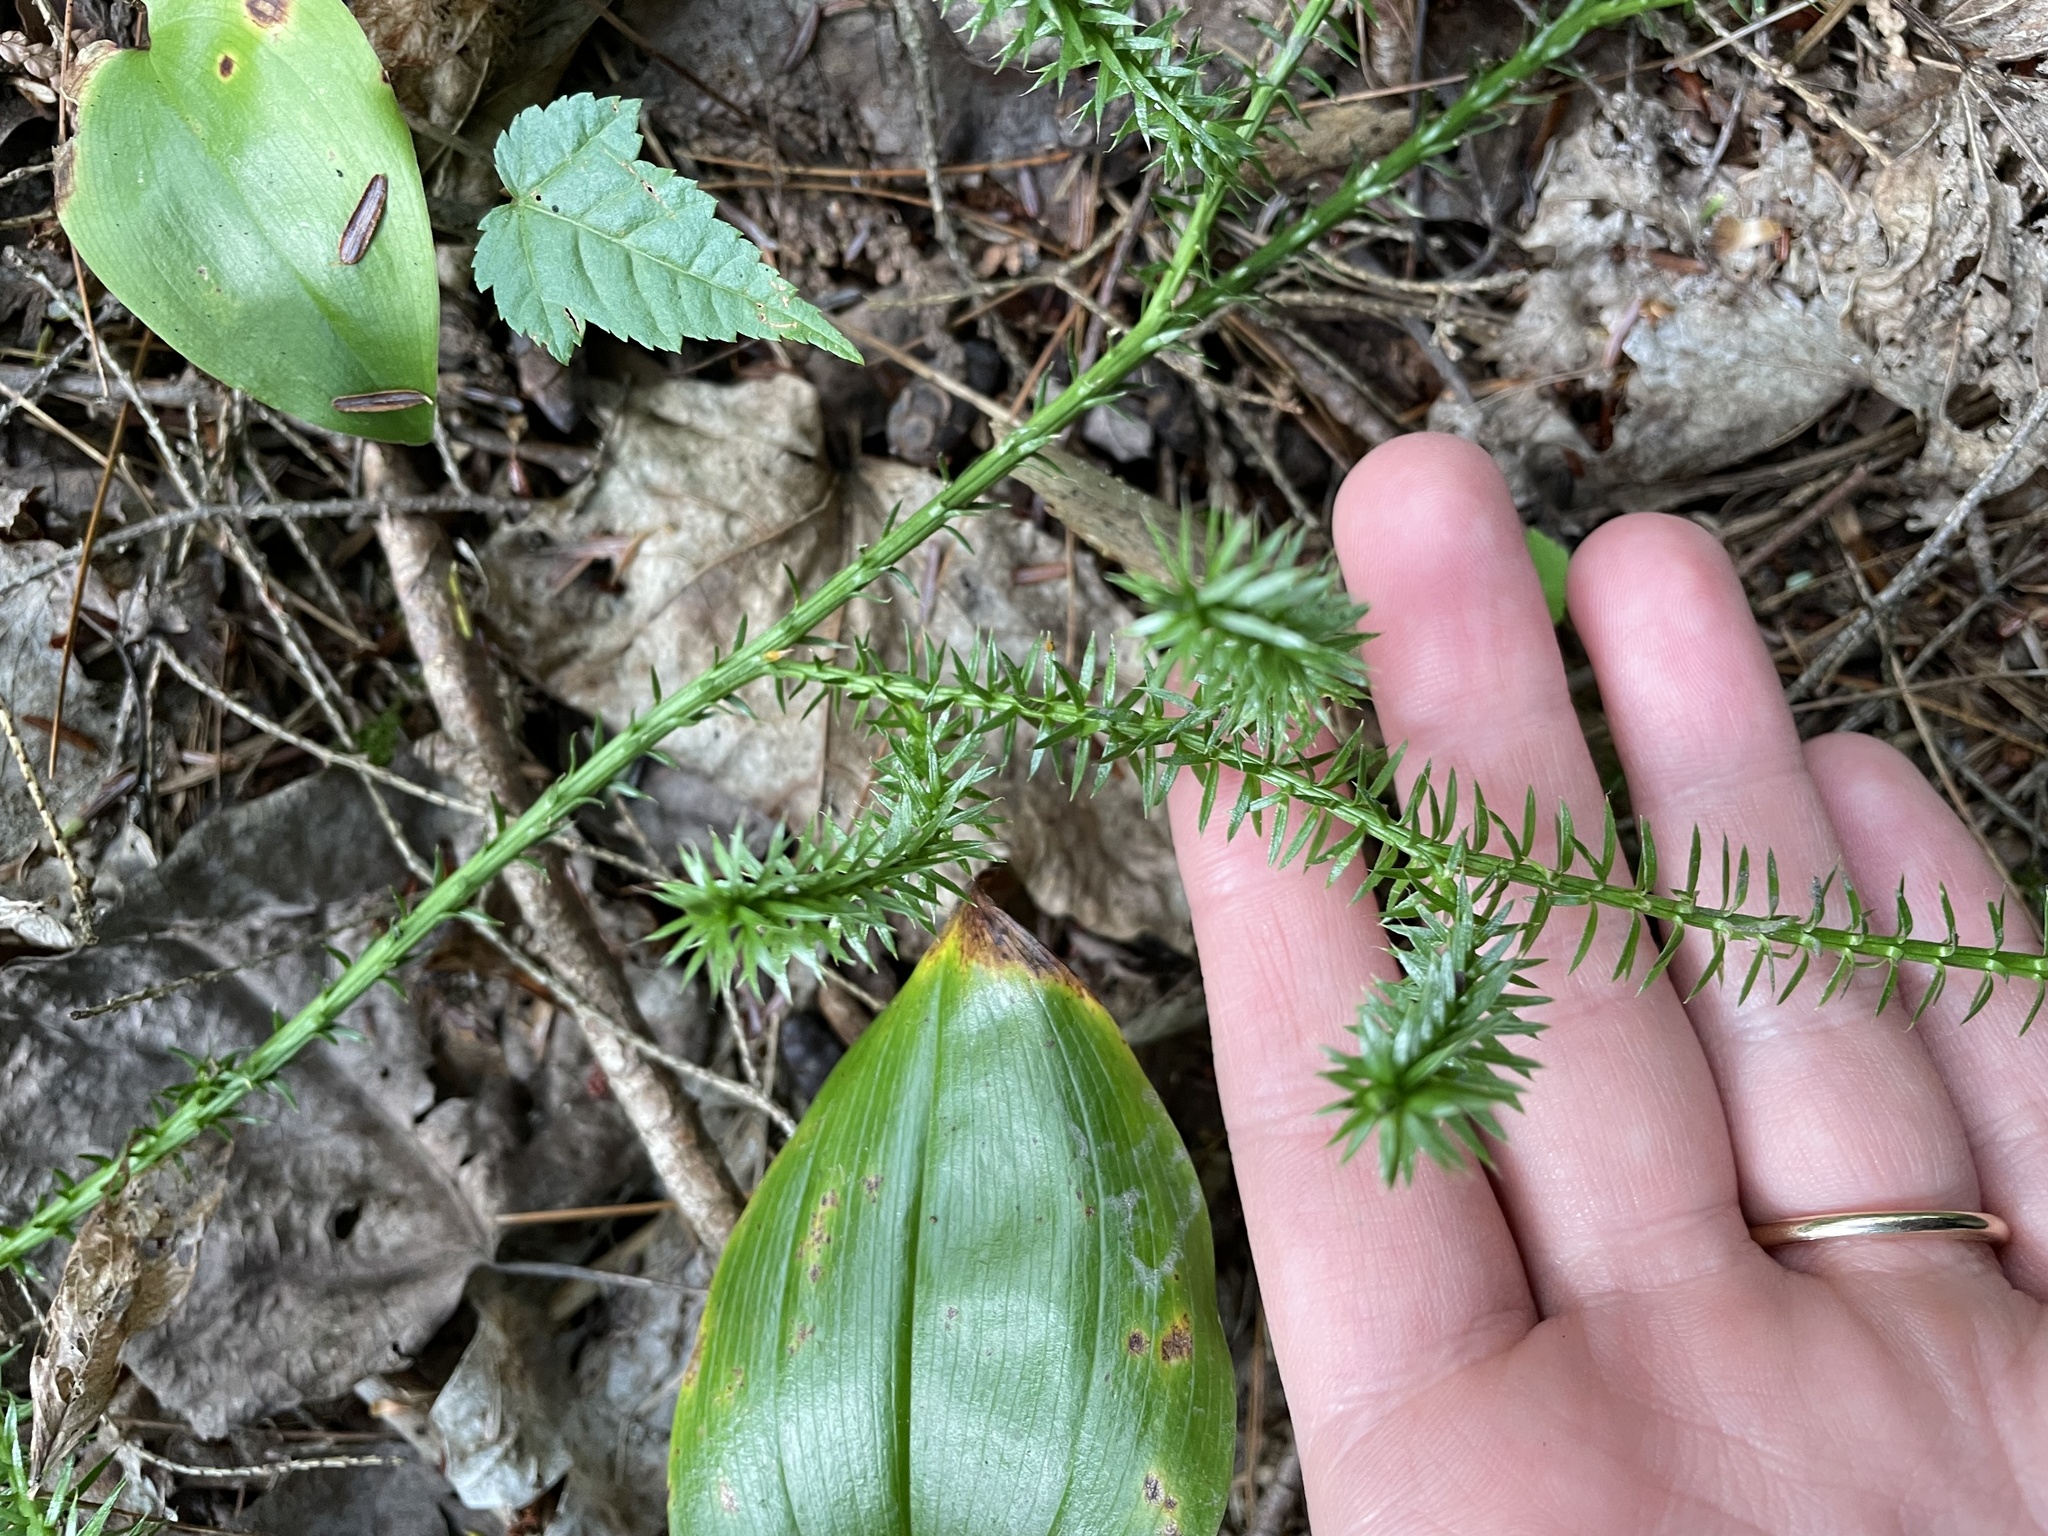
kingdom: Plantae
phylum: Tracheophyta
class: Lycopodiopsida
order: Lycopodiales
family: Lycopodiaceae
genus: Spinulum
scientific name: Spinulum annotinum
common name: Interrupted club-moss
